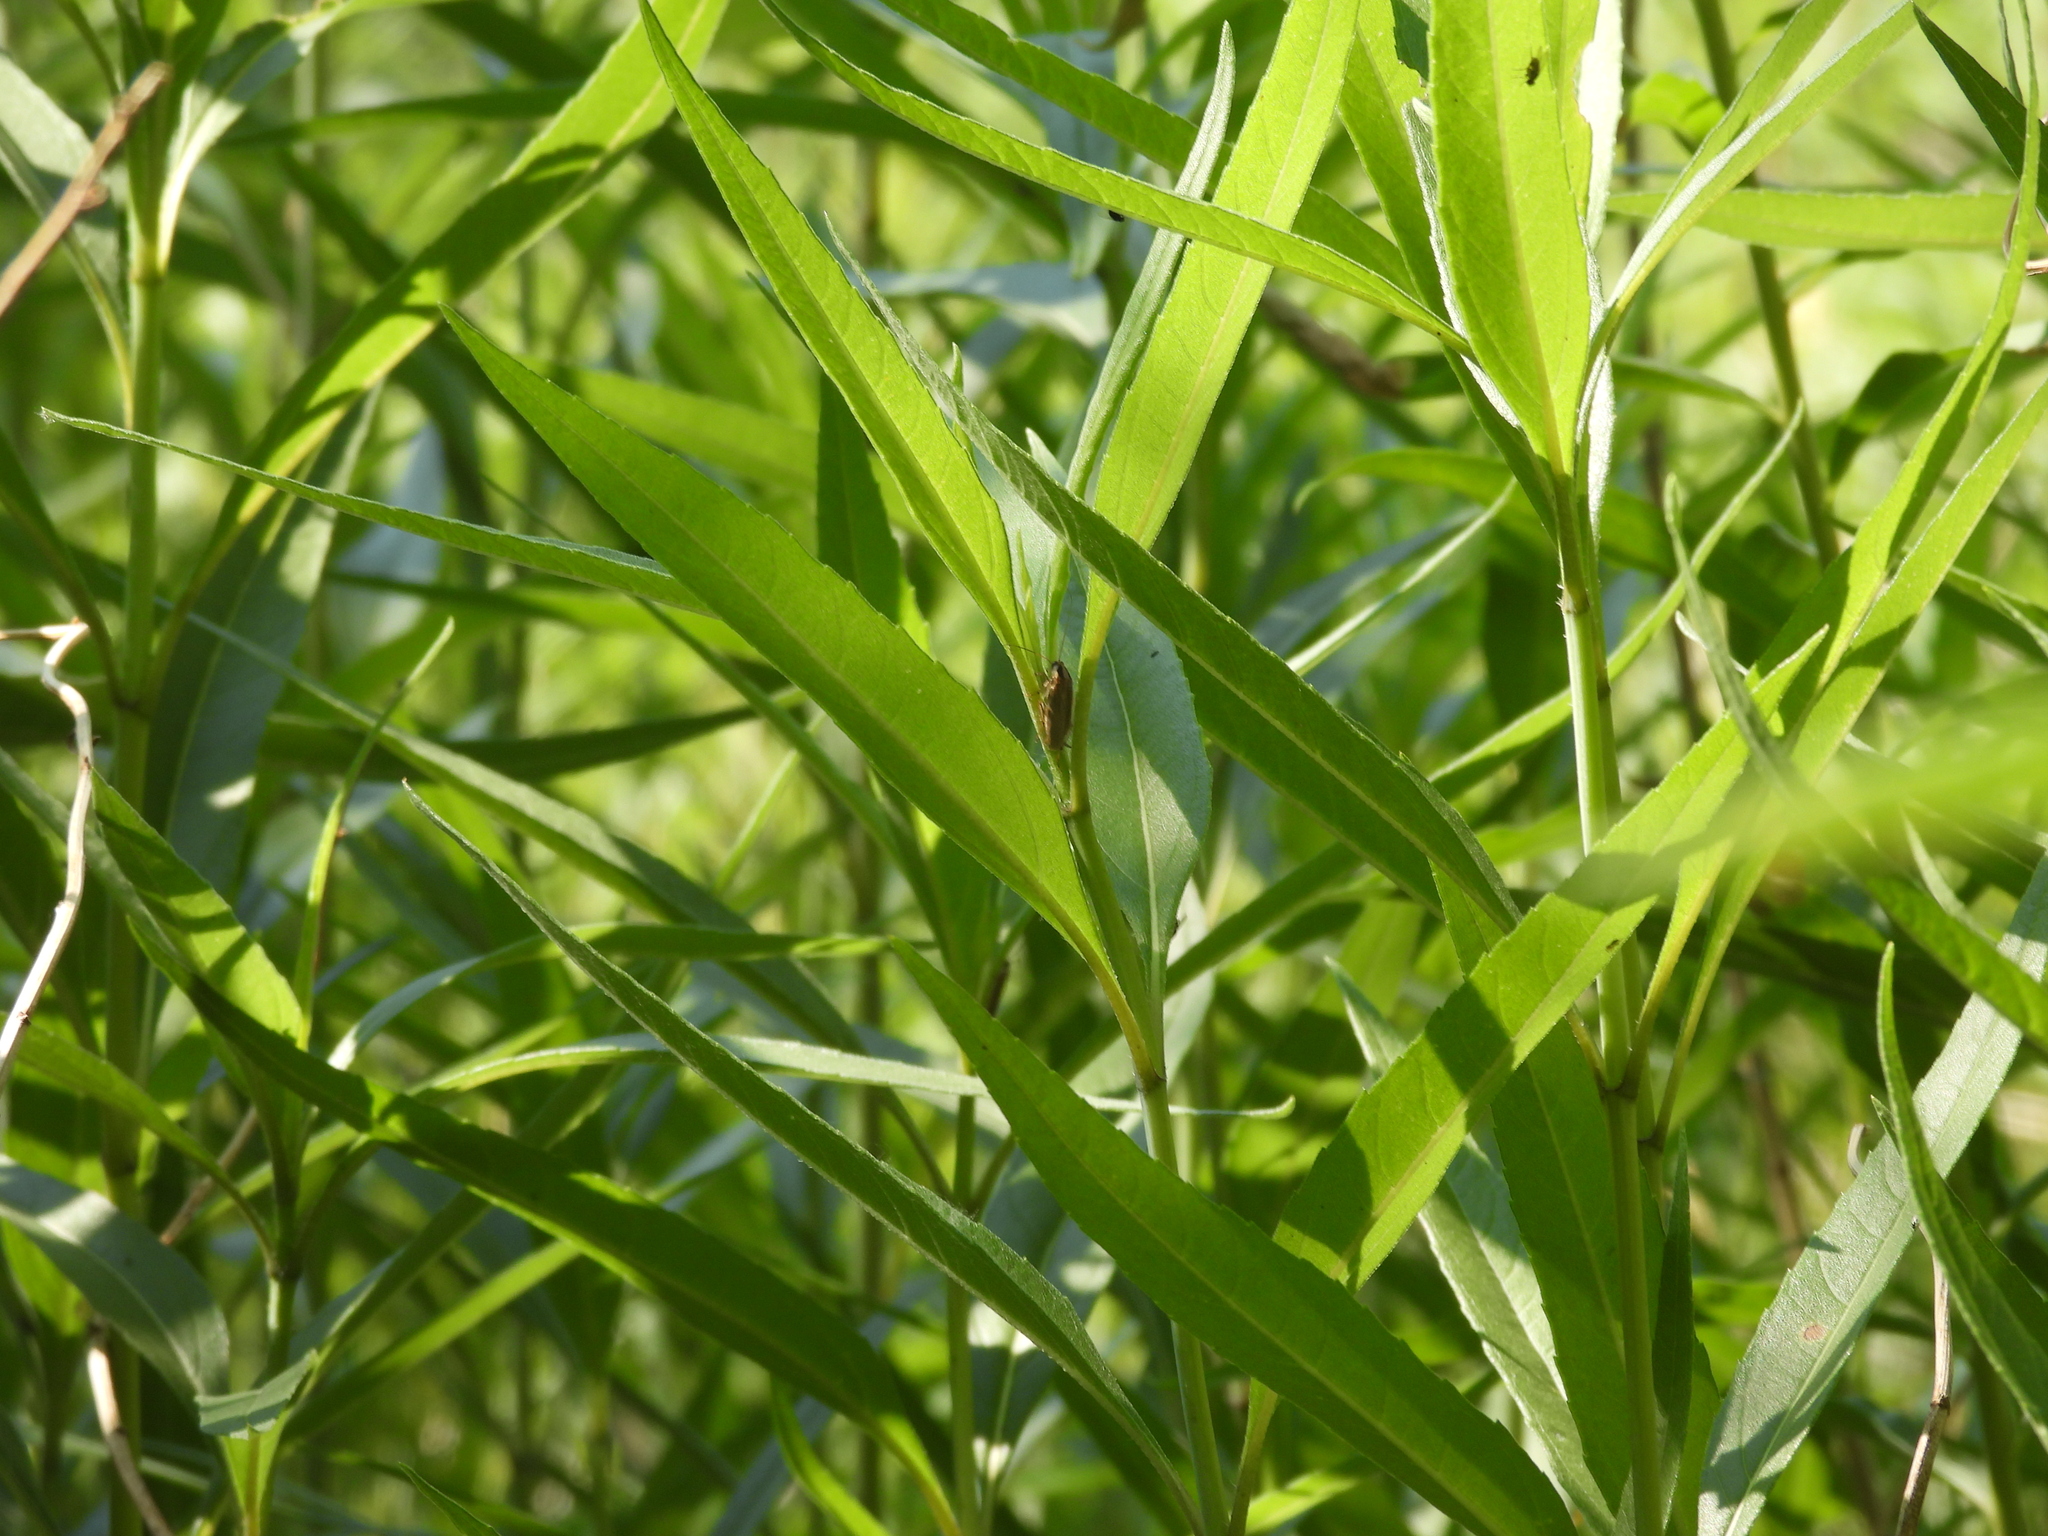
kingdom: Animalia
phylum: Arthropoda
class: Insecta
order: Blattodea
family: Ectobiidae
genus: Blattella
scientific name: Blattella vaga
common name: Field cockroach
